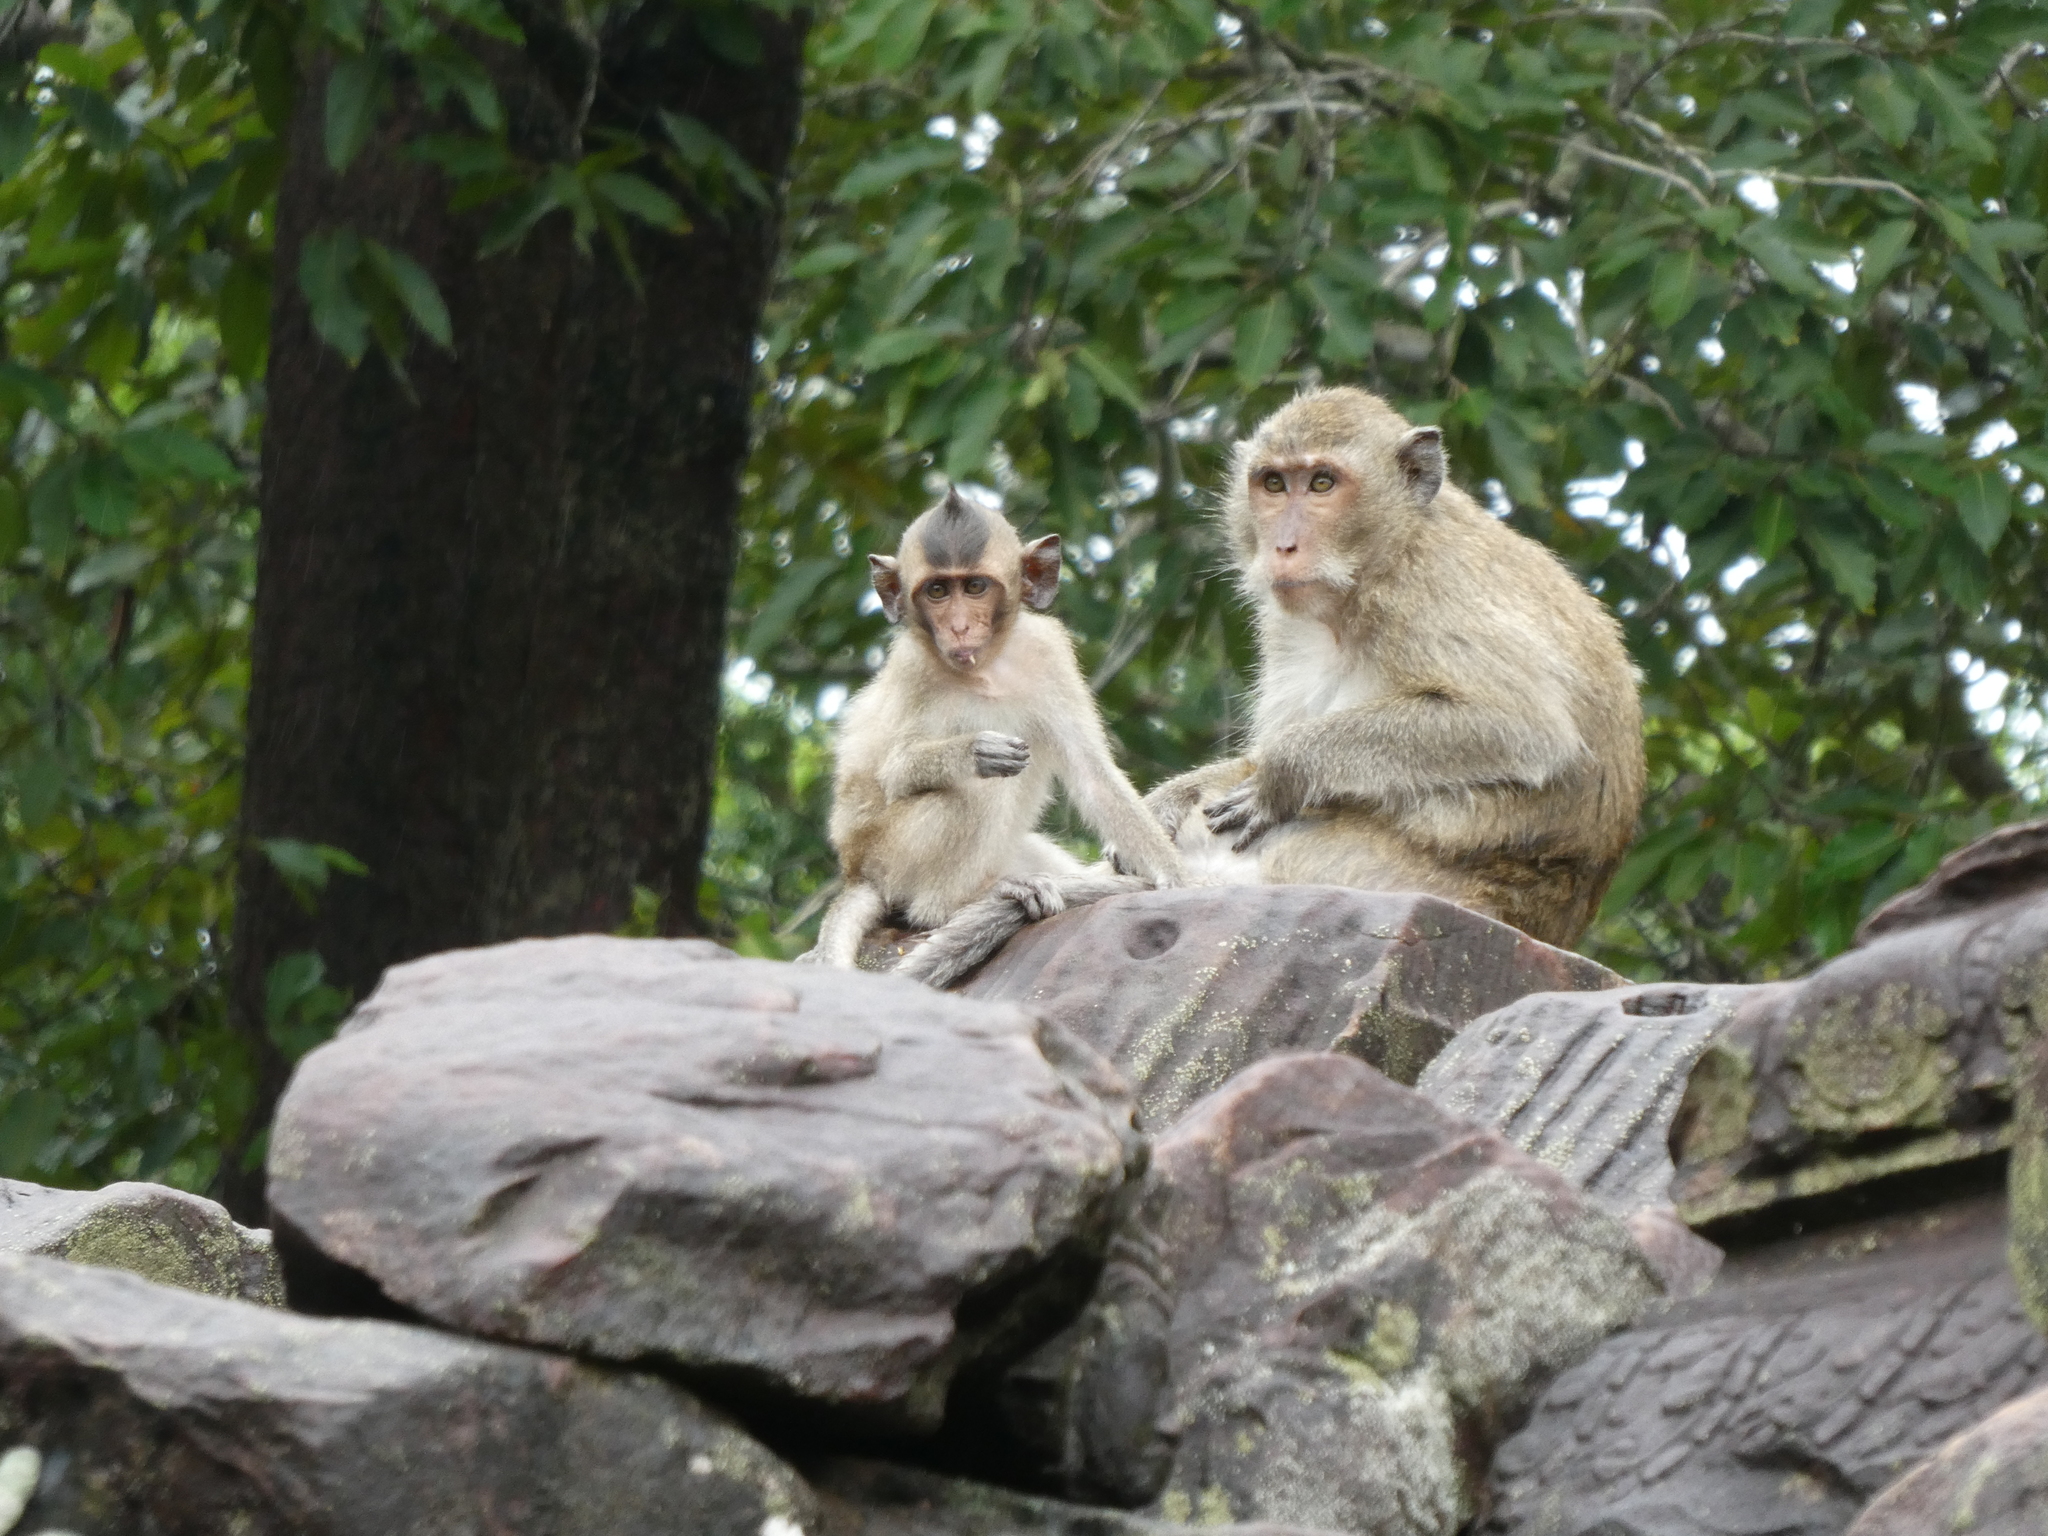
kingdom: Animalia
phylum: Chordata
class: Mammalia
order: Primates
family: Cercopithecidae
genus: Macaca
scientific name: Macaca fascicularis
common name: Crab-eating macaque
